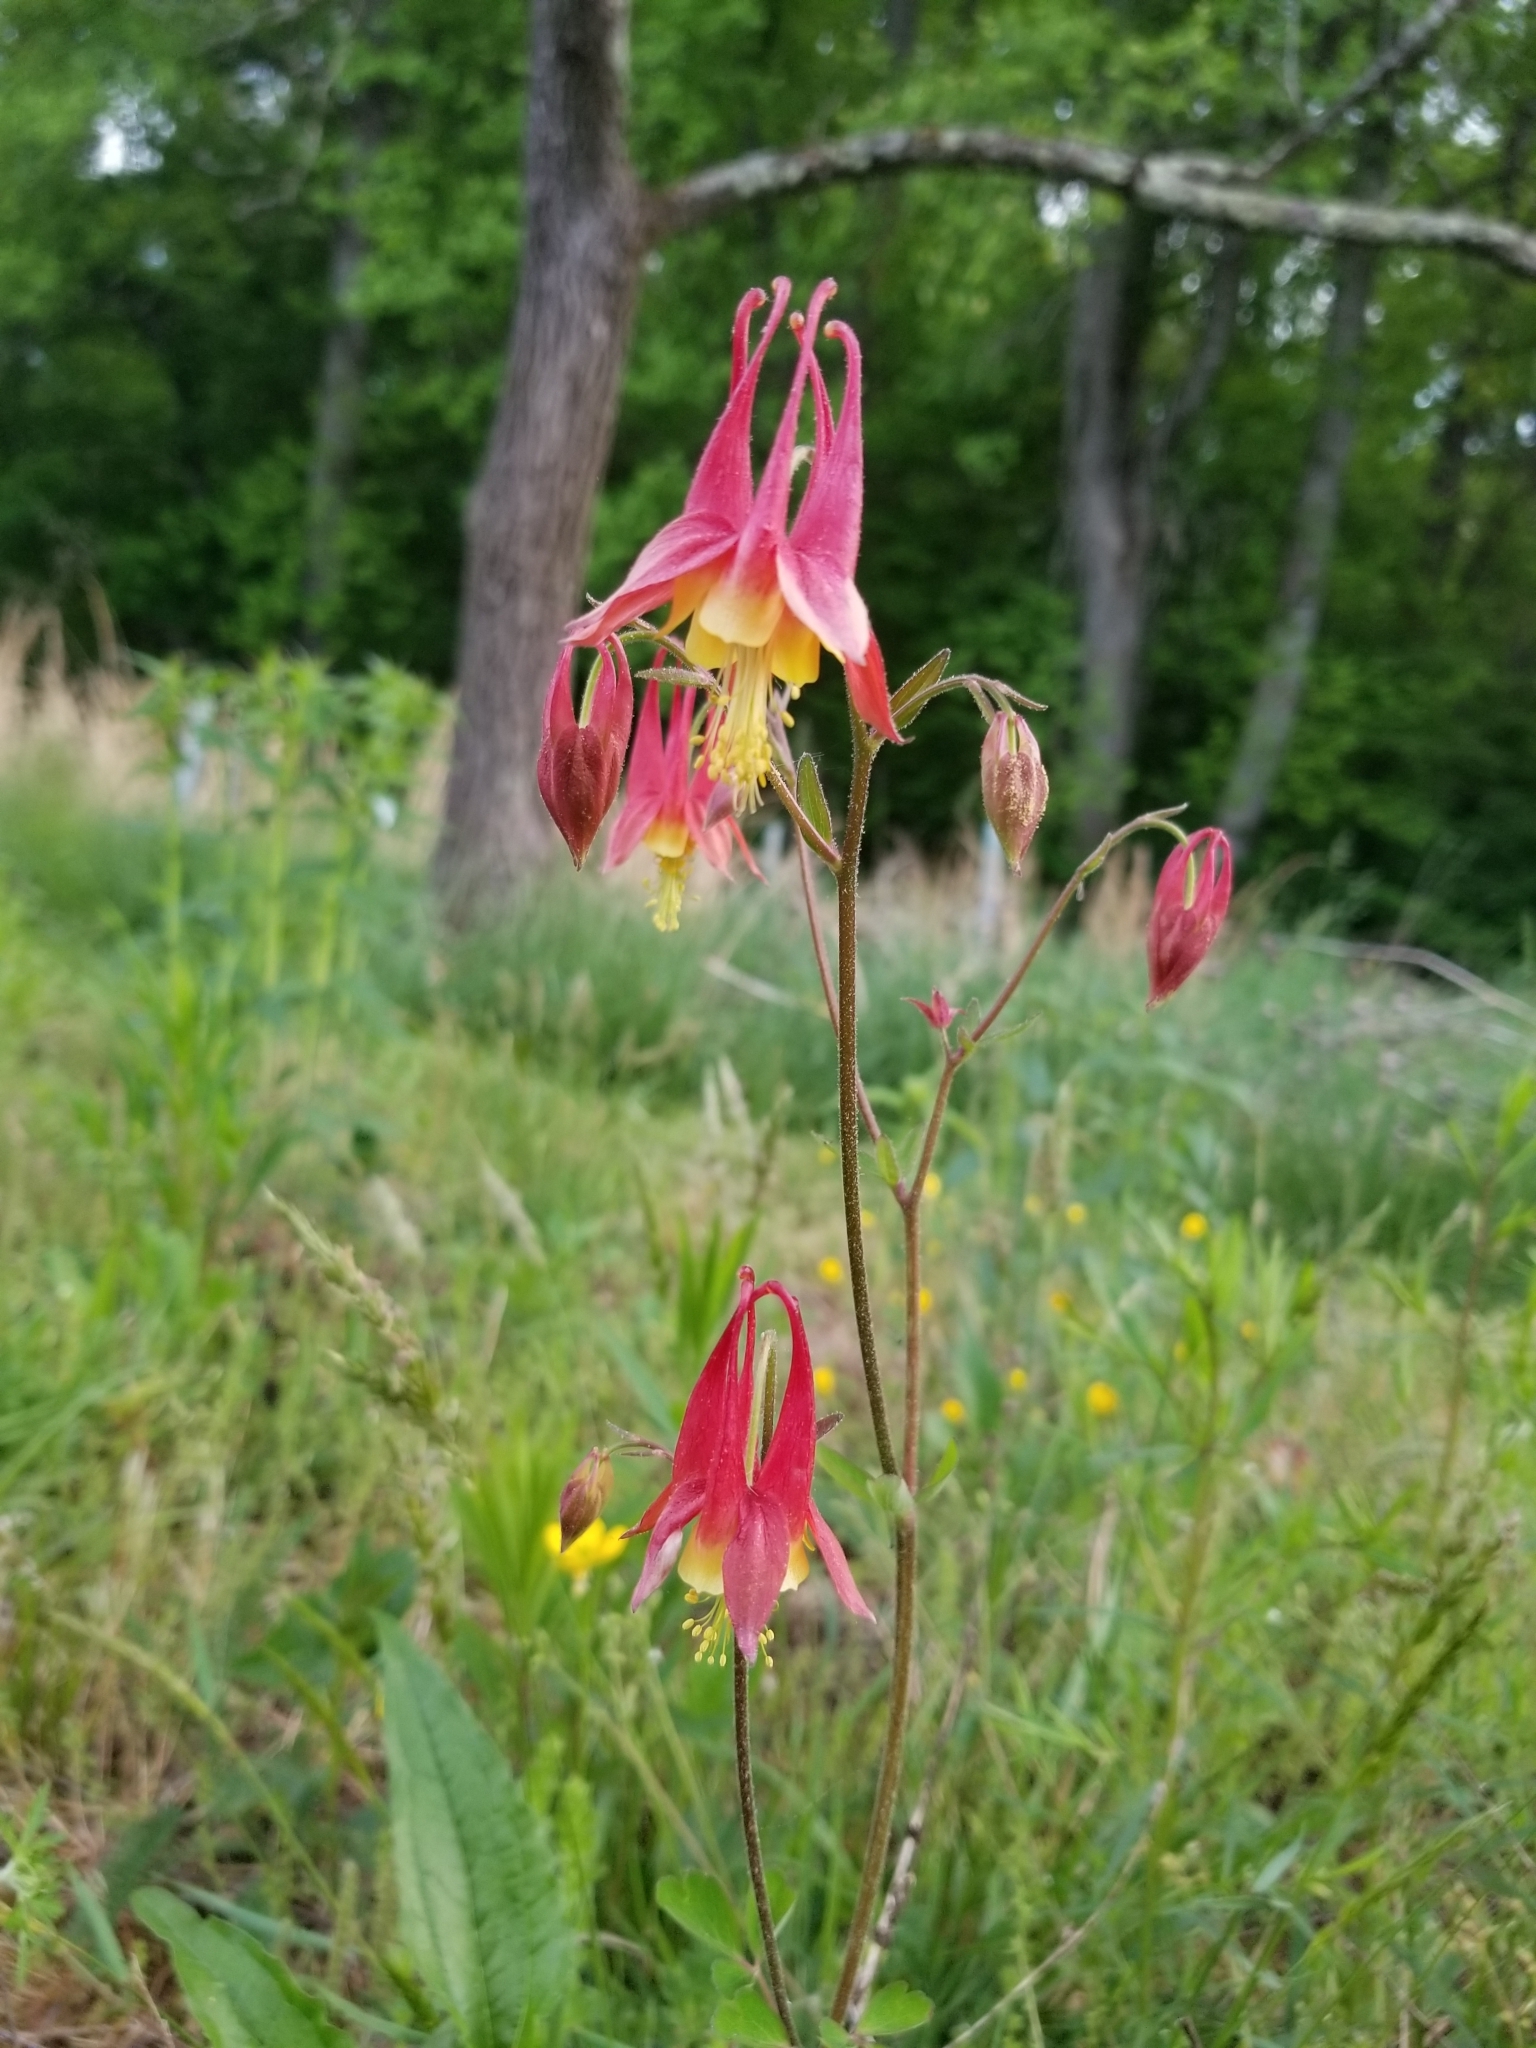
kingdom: Plantae
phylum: Tracheophyta
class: Magnoliopsida
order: Ranunculales
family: Ranunculaceae
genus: Aquilegia
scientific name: Aquilegia canadensis
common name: American columbine
